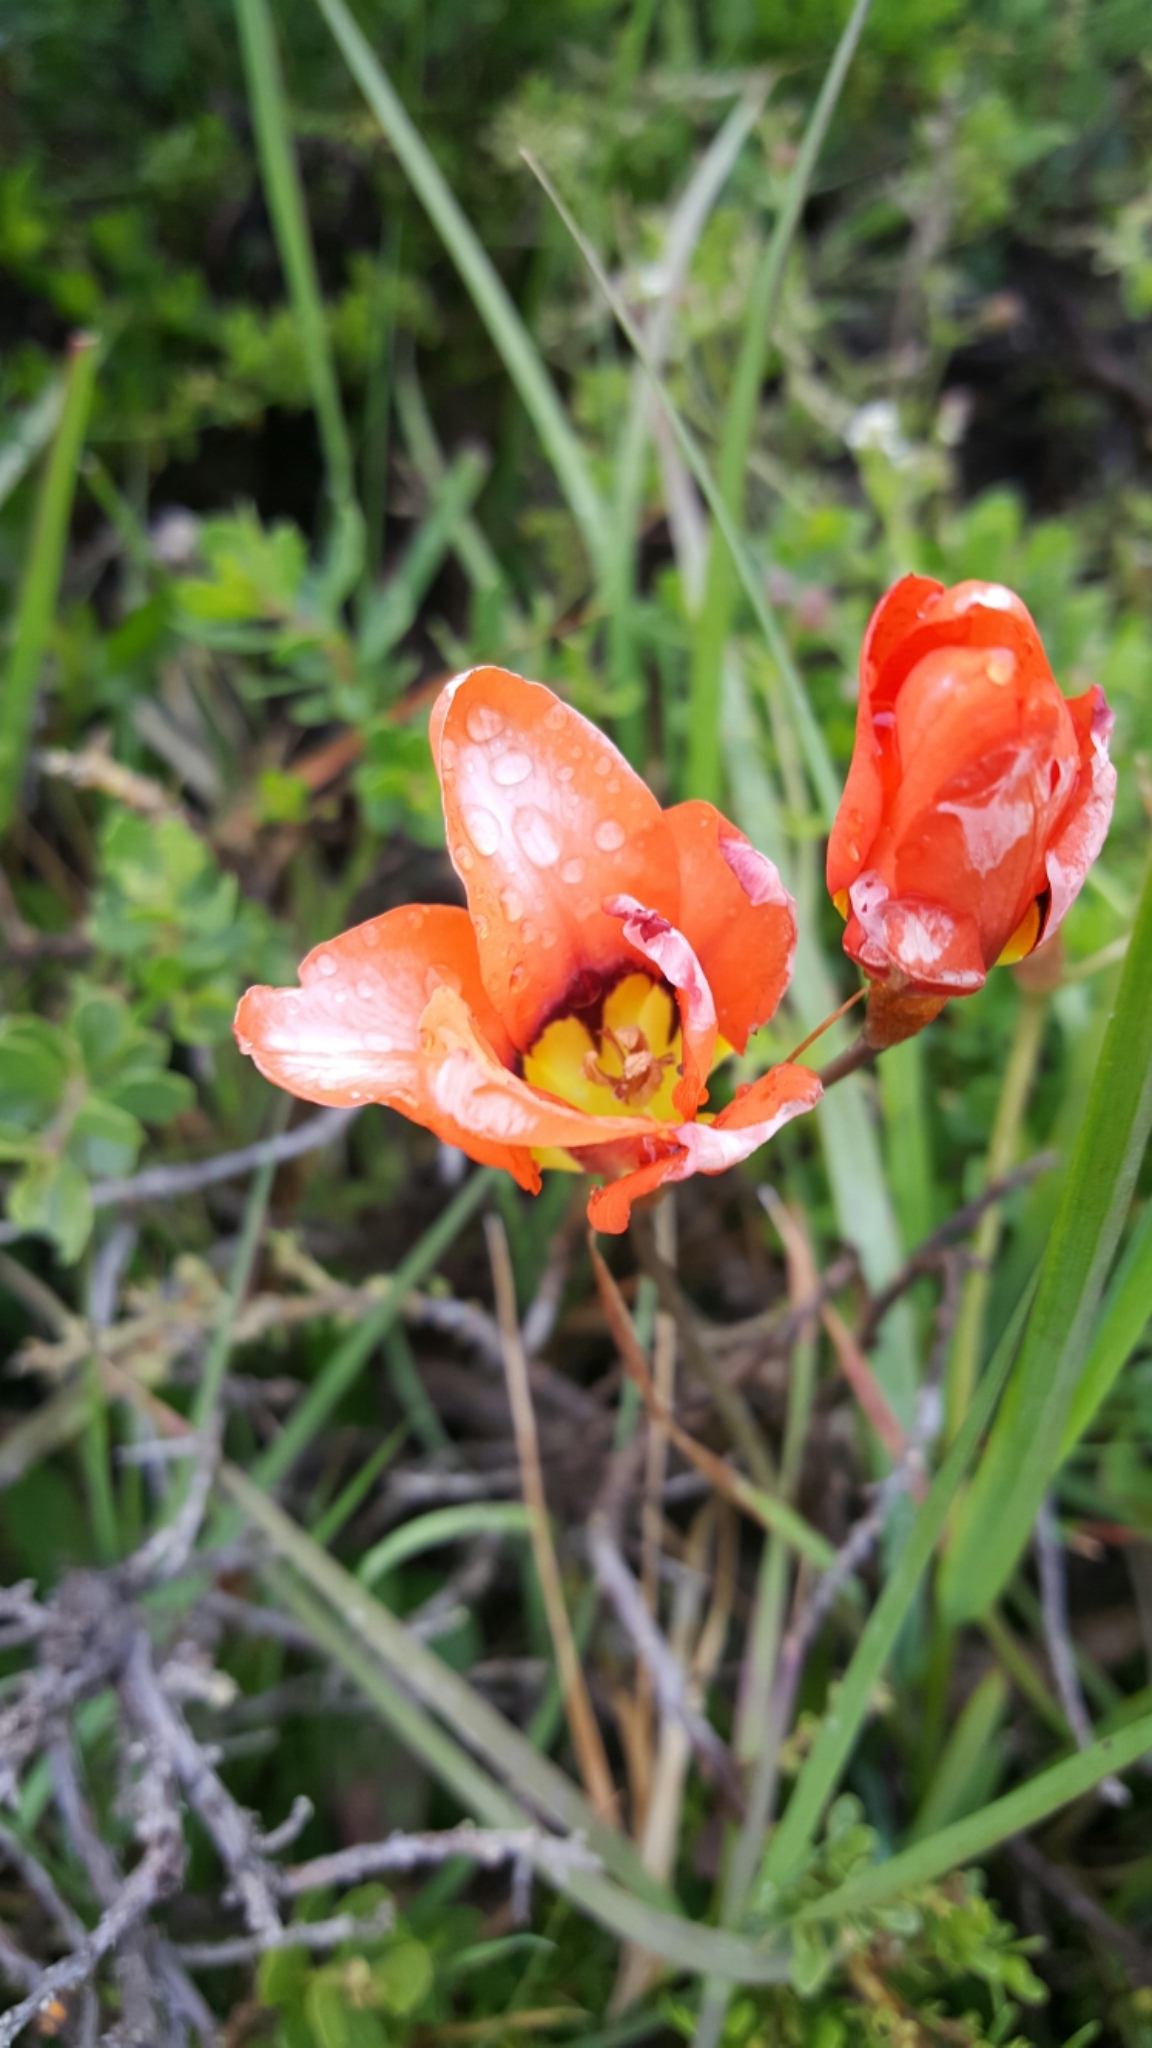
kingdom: Plantae
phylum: Tracheophyta
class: Liliopsida
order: Asparagales
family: Iridaceae
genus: Sparaxis
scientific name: Sparaxis tricolor
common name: Wandflower
